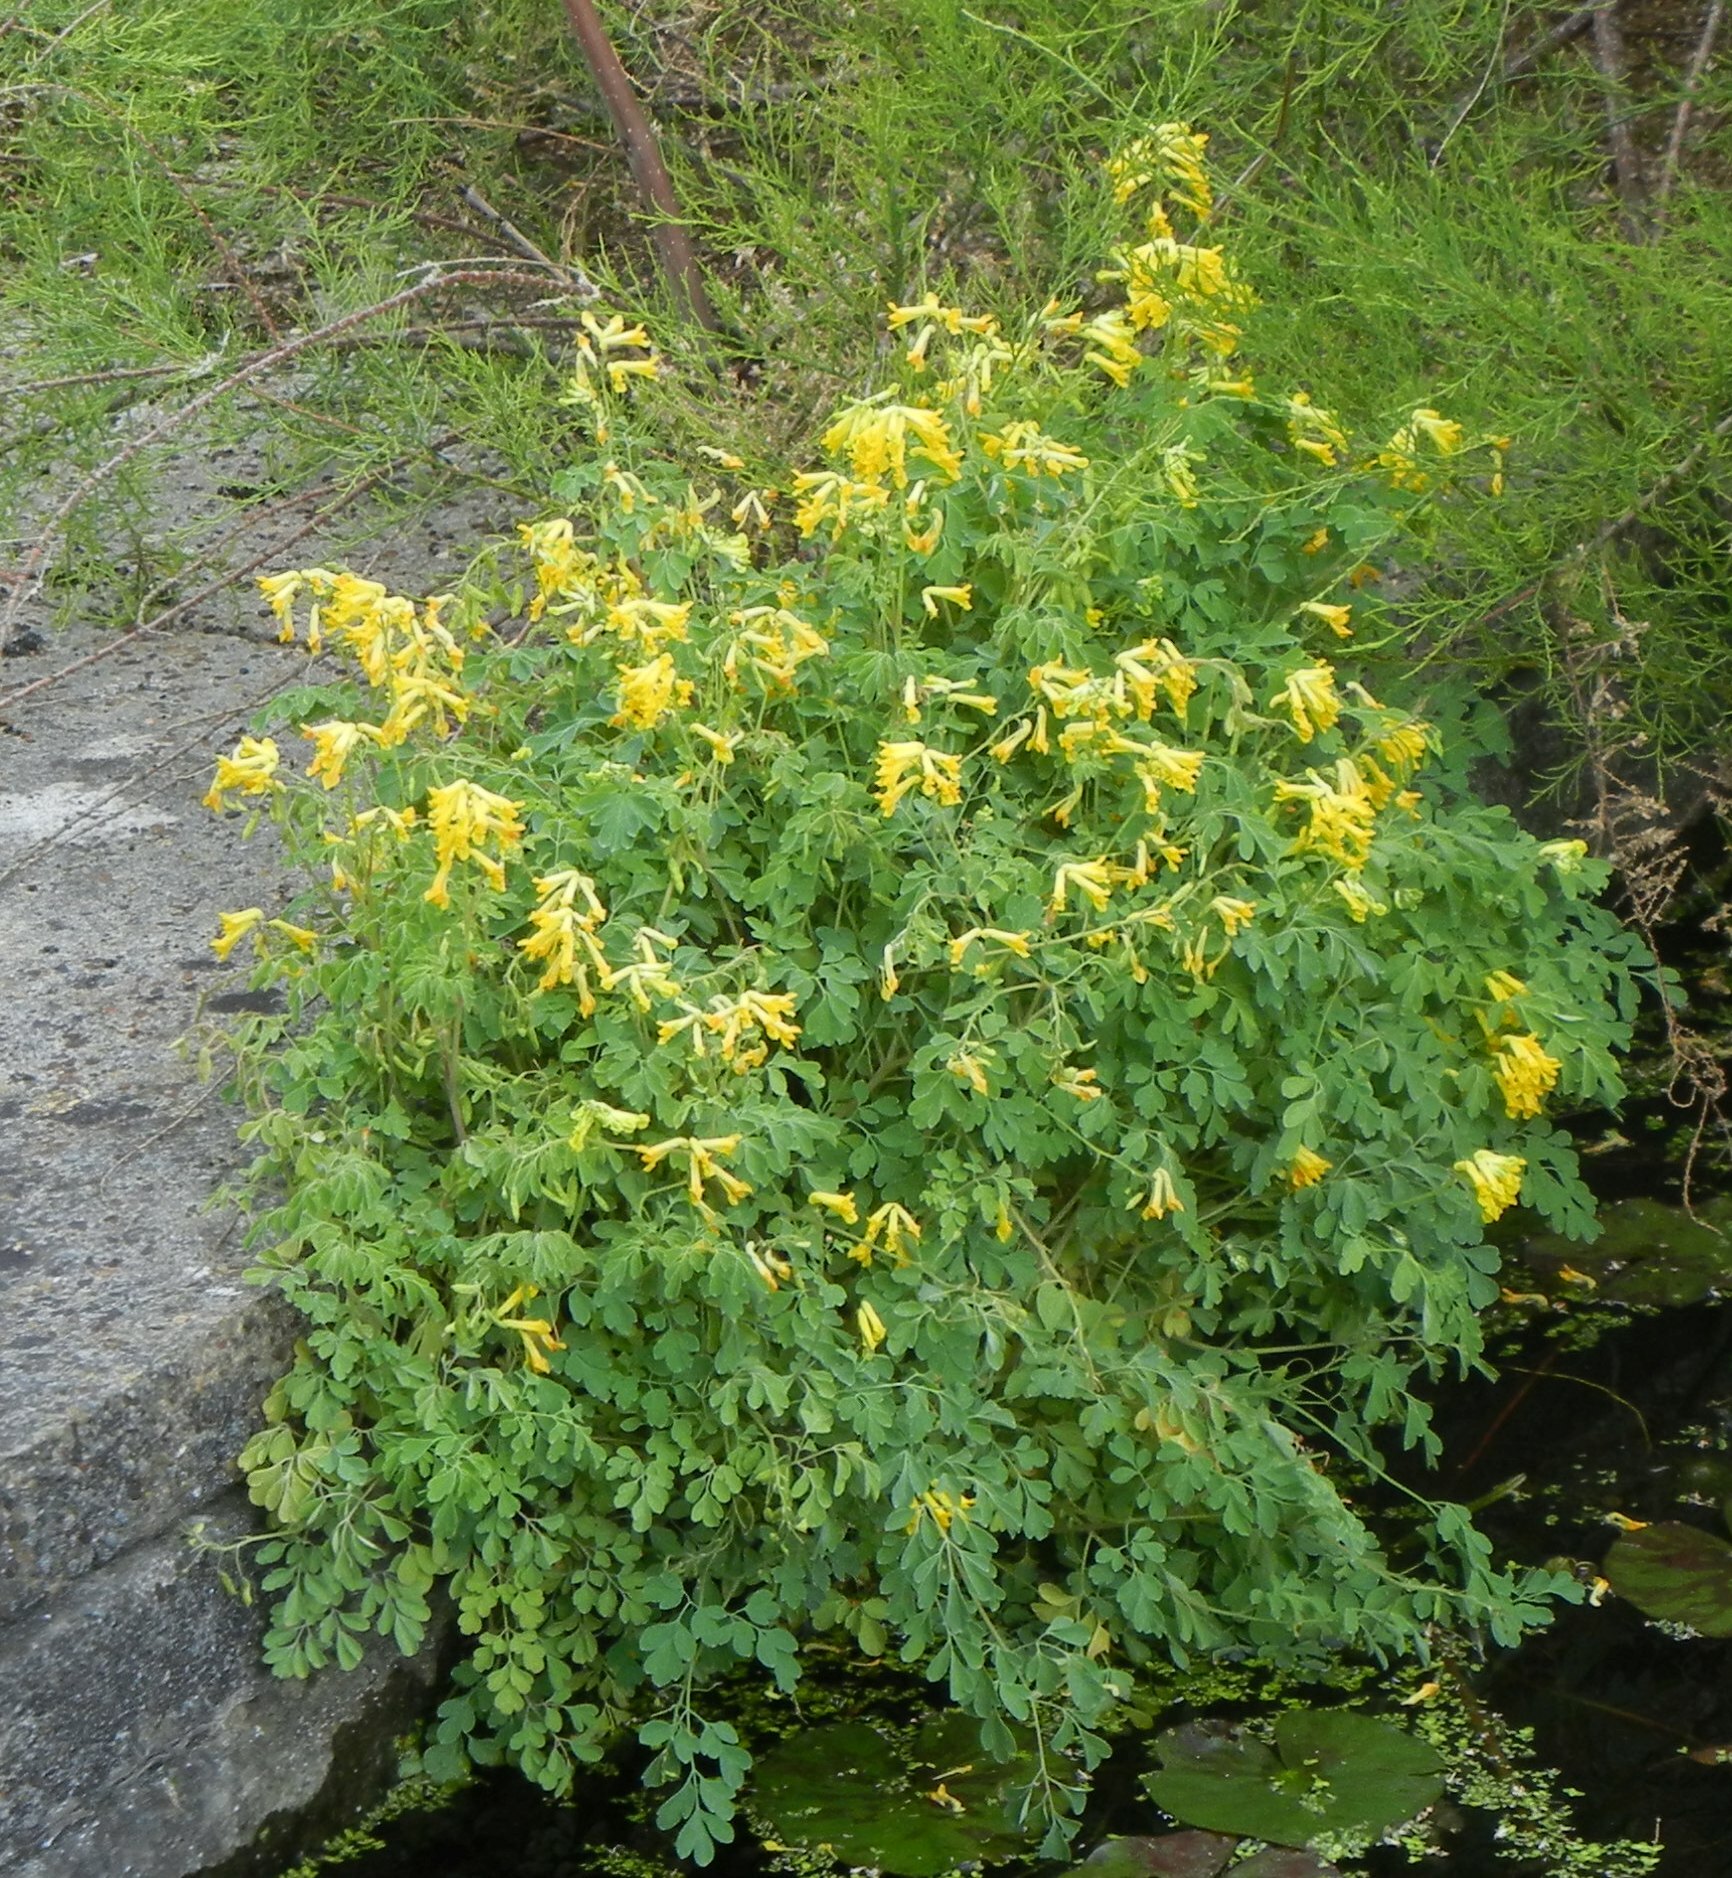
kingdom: Plantae
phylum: Tracheophyta
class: Magnoliopsida
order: Ranunculales
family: Papaveraceae
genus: Pseudofumaria
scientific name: Pseudofumaria lutea
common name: Yellow corydalis
